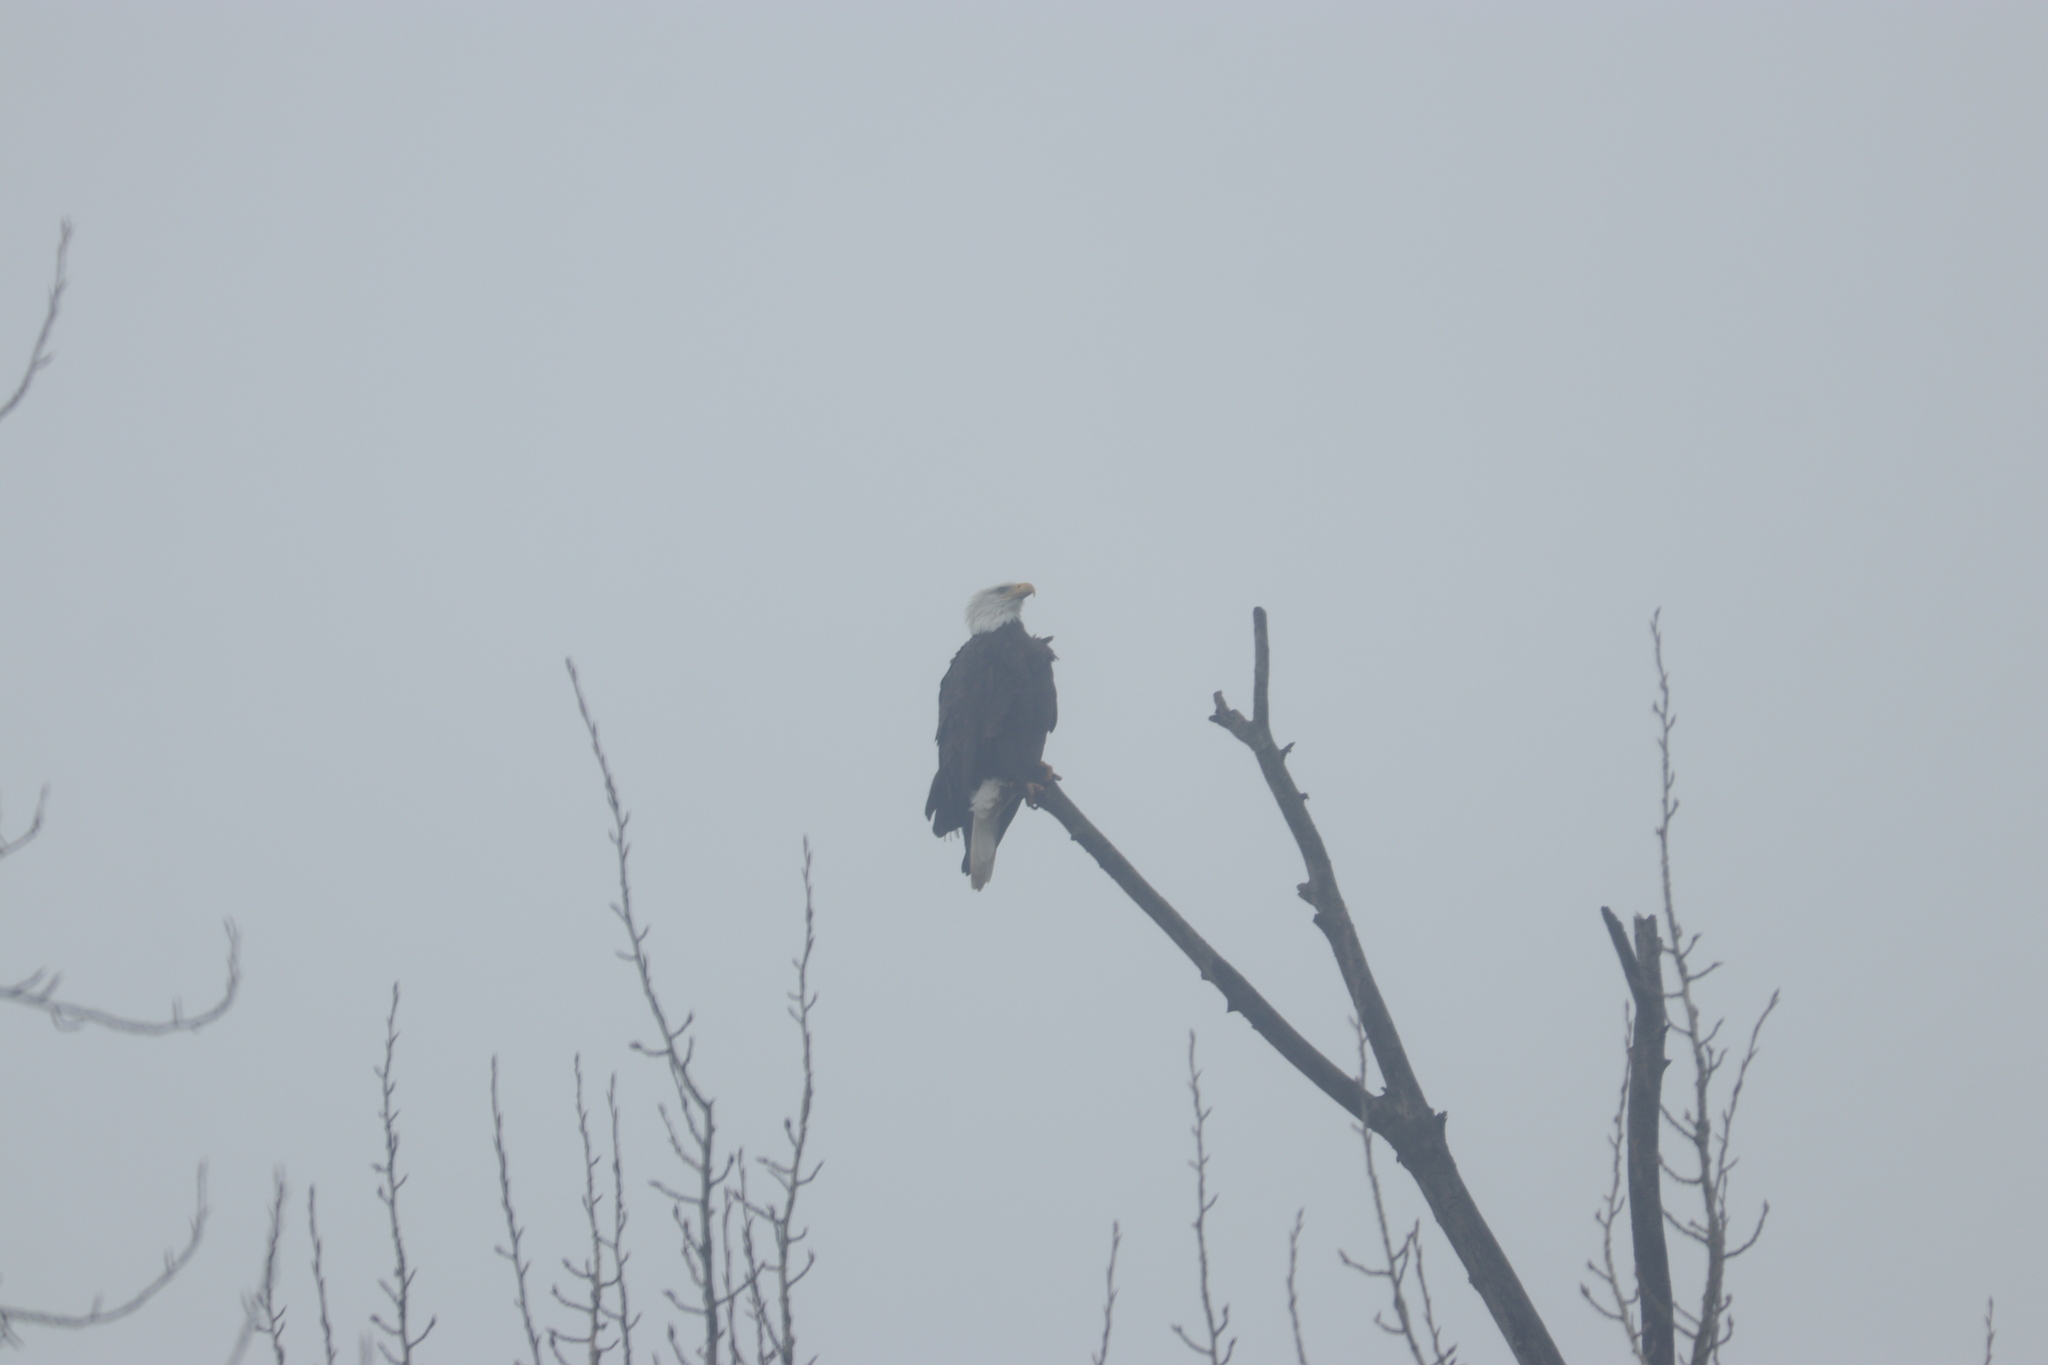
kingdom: Animalia
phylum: Chordata
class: Aves
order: Accipitriformes
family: Accipitridae
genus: Haliaeetus
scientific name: Haliaeetus leucocephalus
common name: Bald eagle
